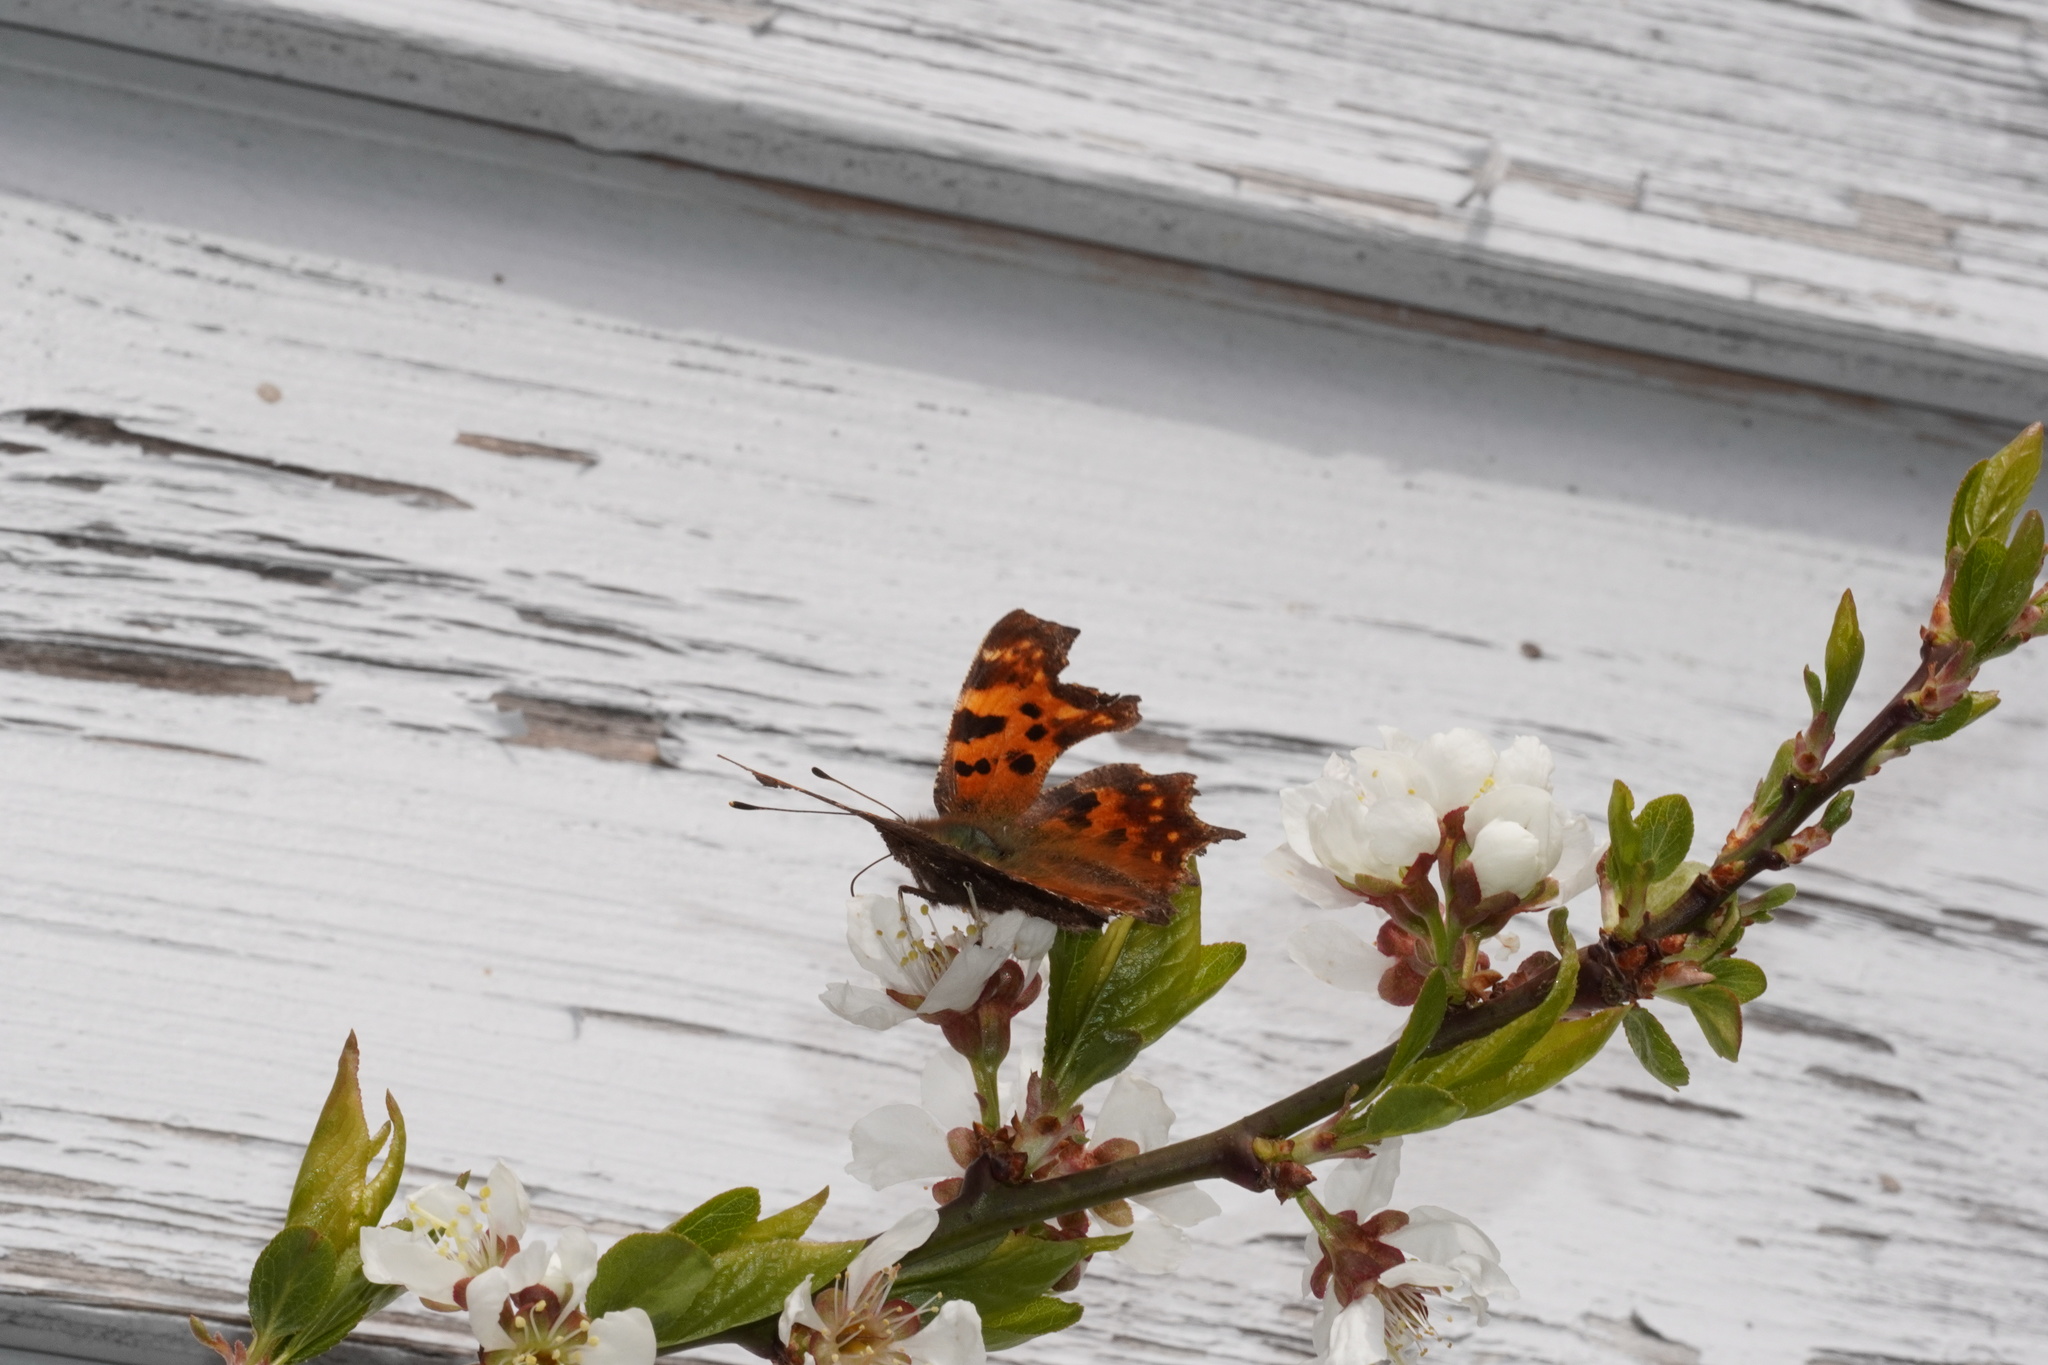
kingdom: Animalia
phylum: Arthropoda
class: Insecta
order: Lepidoptera
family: Nymphalidae
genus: Polygonia
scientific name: Polygonia c-album
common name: Comma
